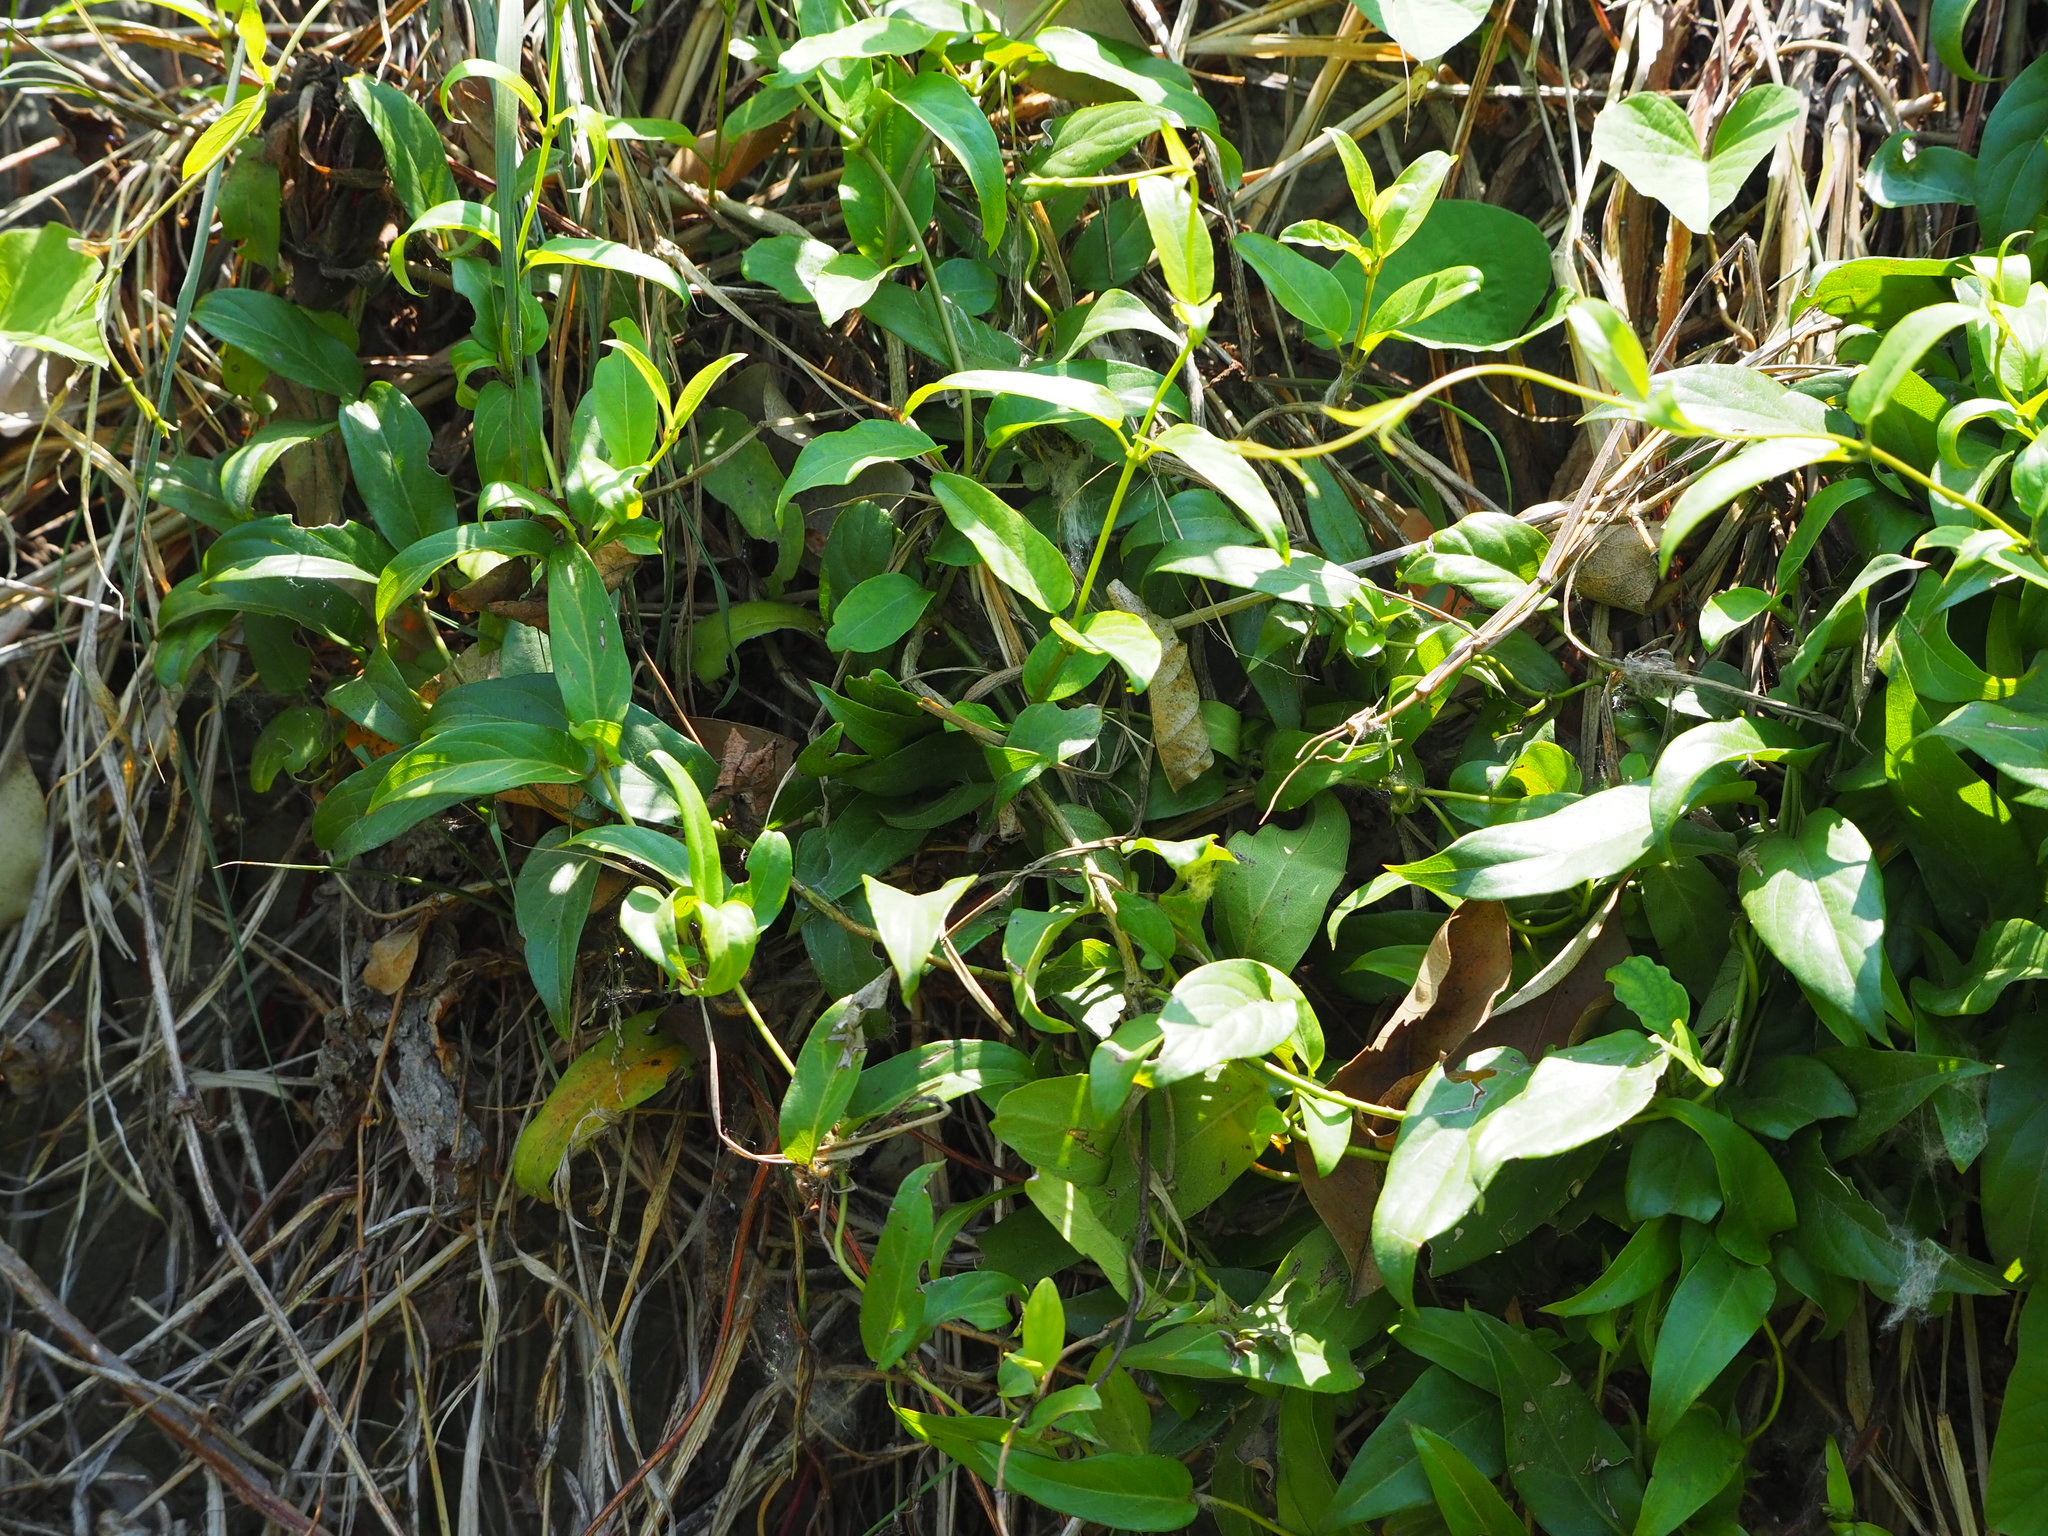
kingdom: Plantae
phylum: Tracheophyta
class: Magnoliopsida
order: Gentianales
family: Rubiaceae
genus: Paederia
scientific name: Paederia foetida
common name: Stinkvine
